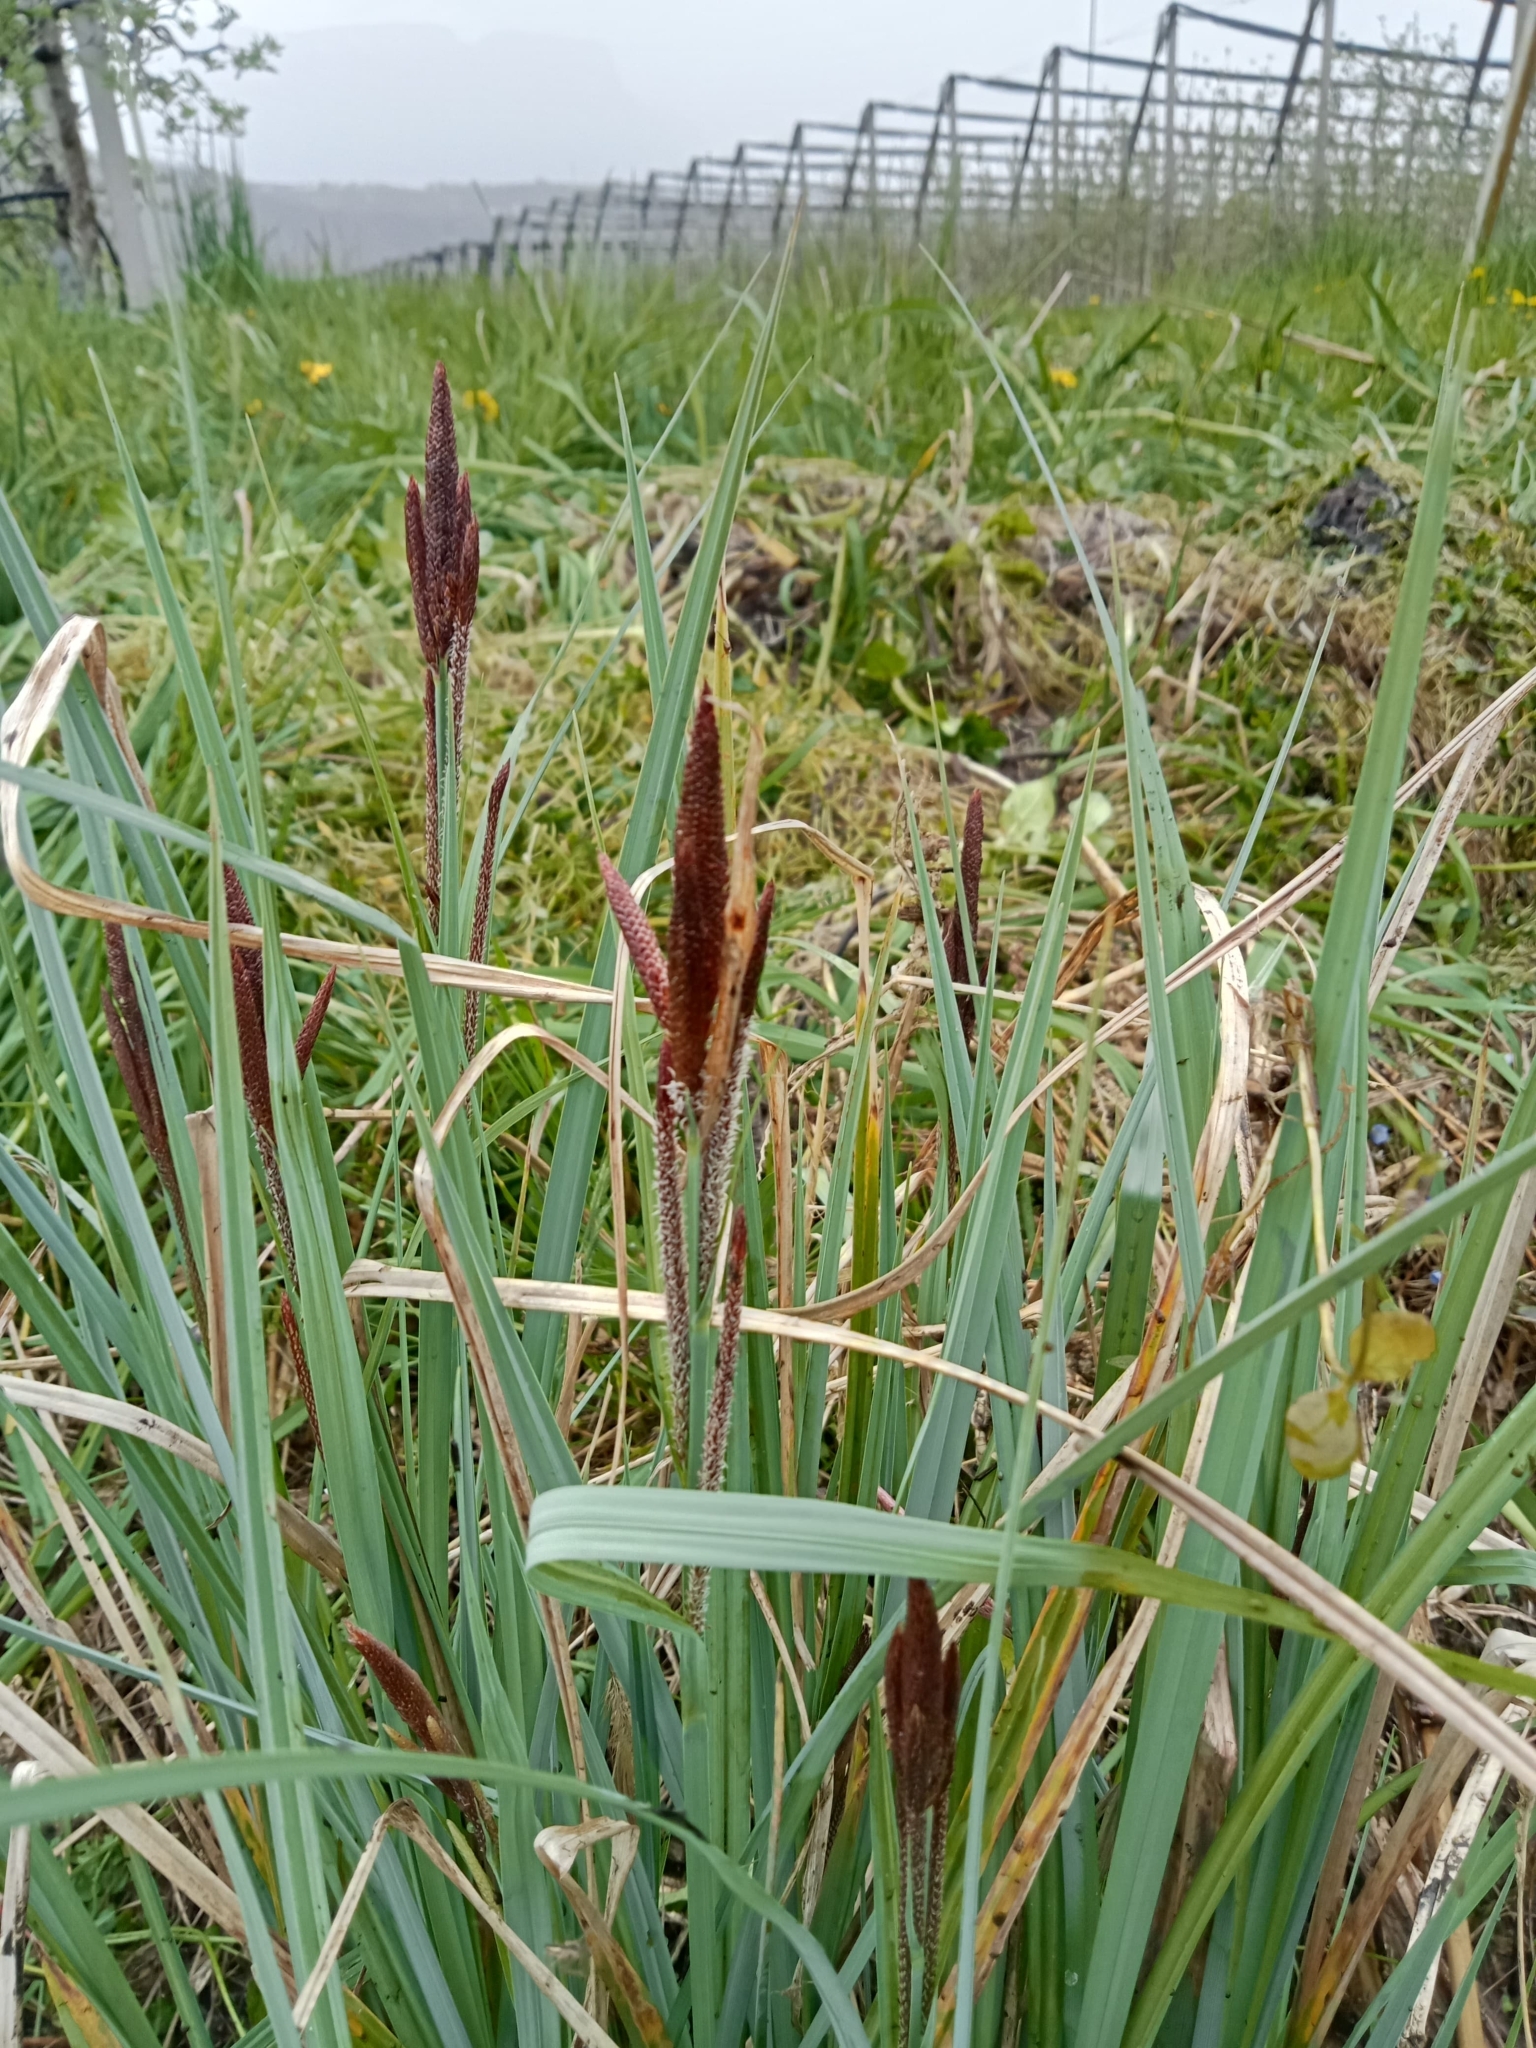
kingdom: Plantae
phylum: Tracheophyta
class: Liliopsida
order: Poales
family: Cyperaceae
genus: Carex
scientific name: Carex acutiformis
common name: Lesser pond-sedge
